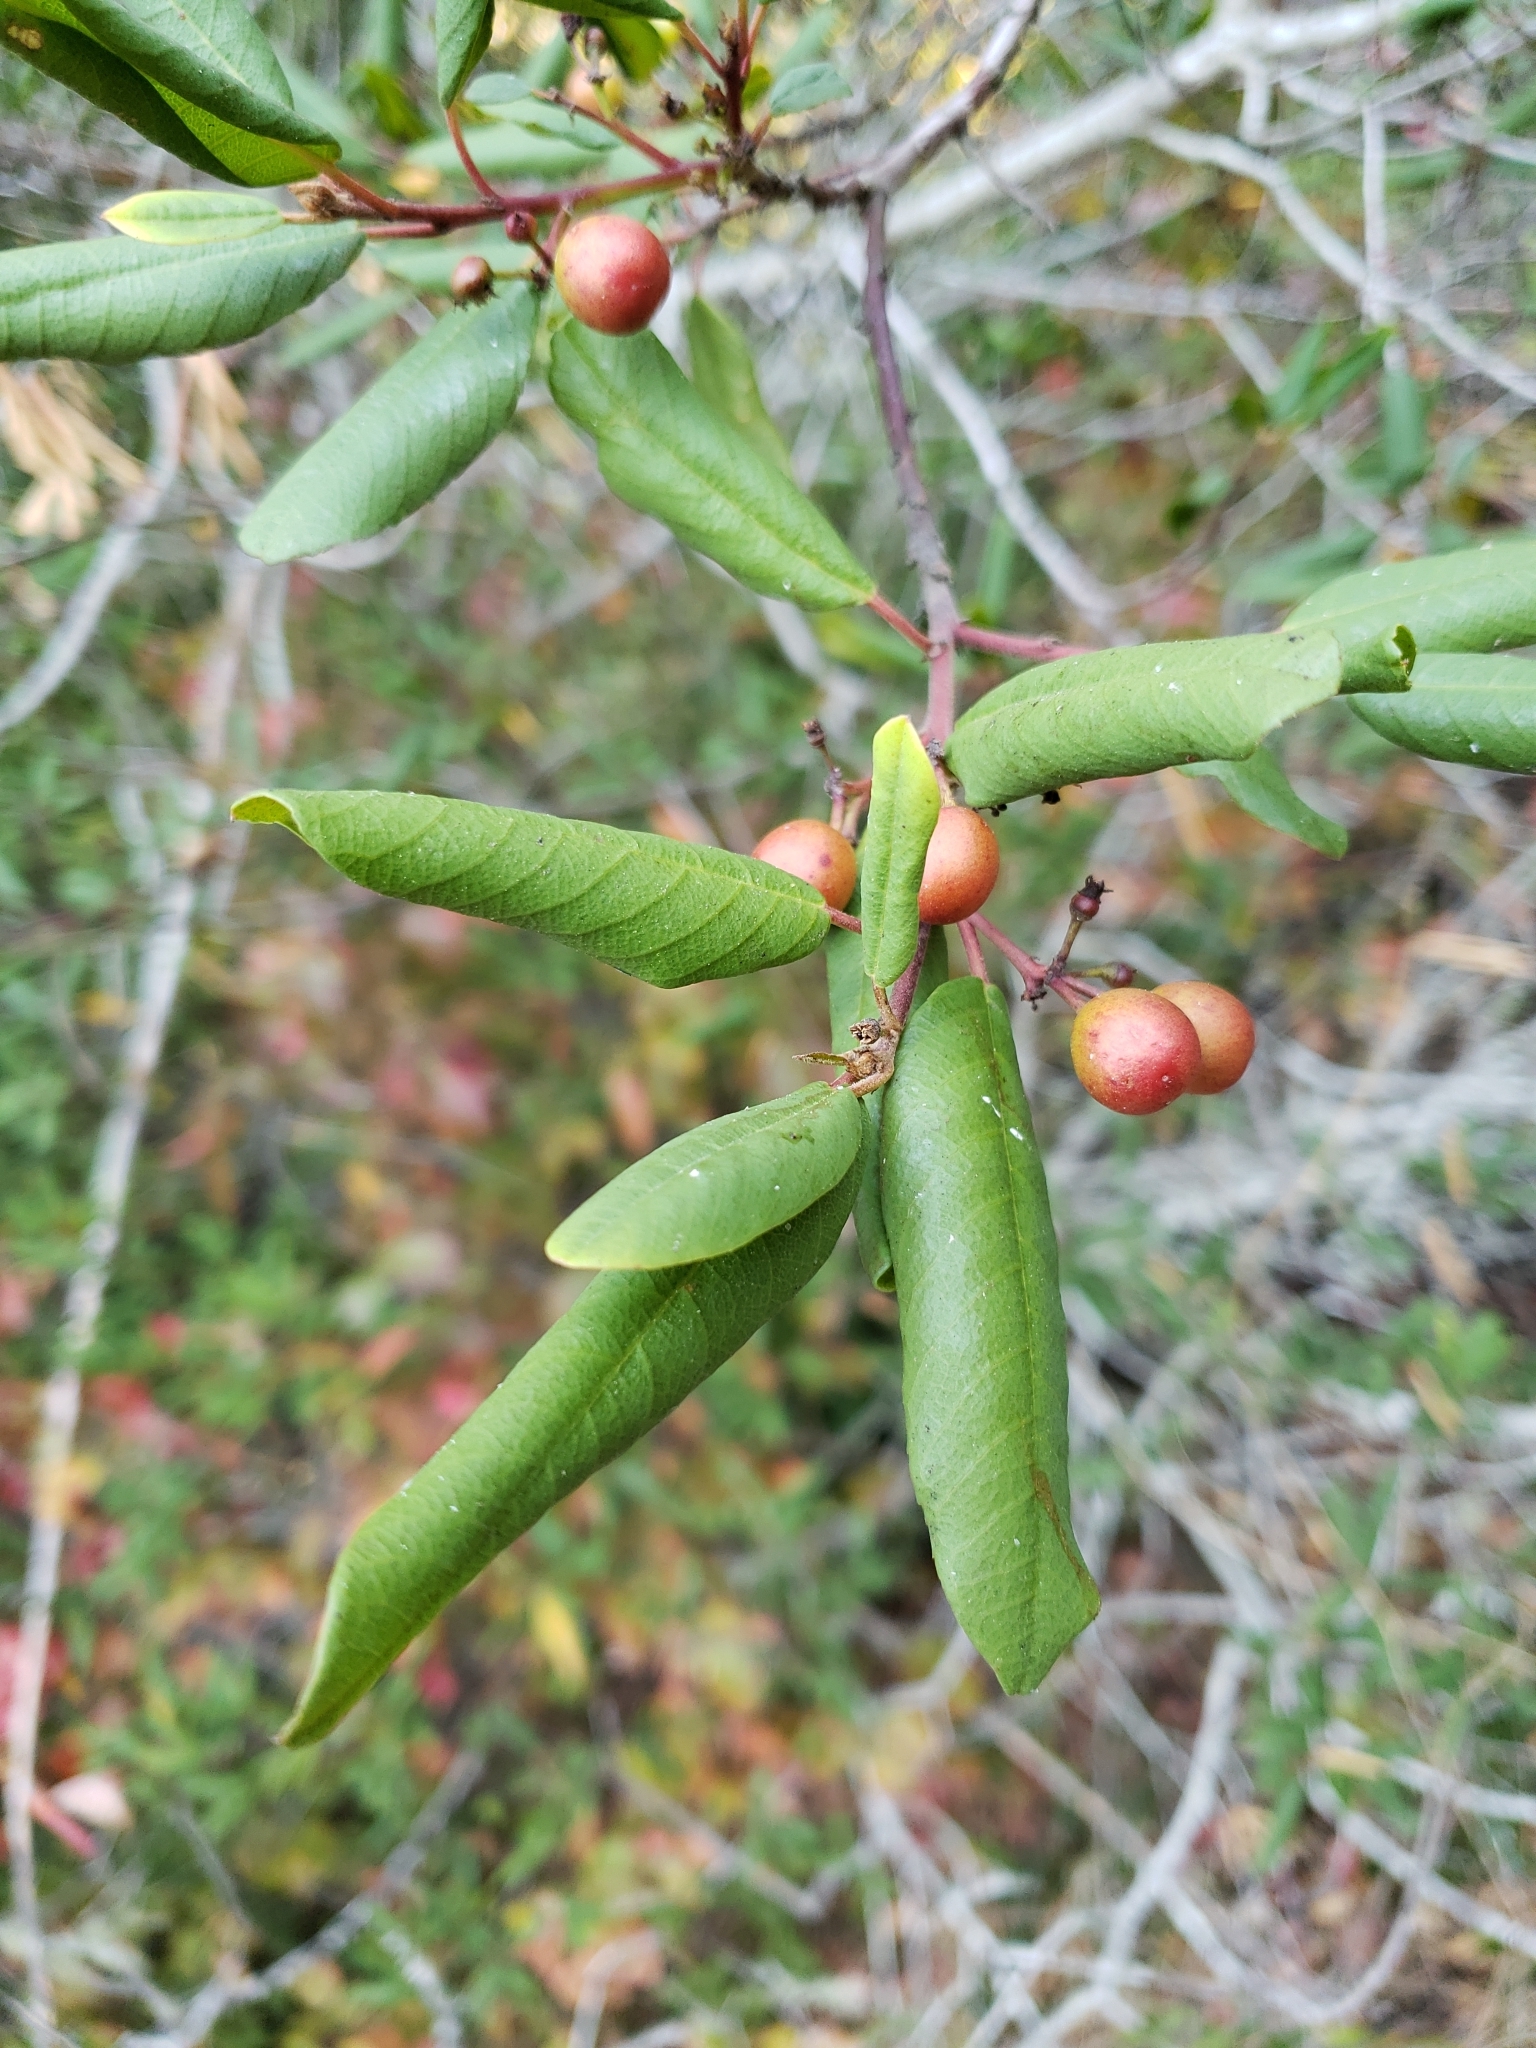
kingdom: Plantae
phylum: Tracheophyta
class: Magnoliopsida
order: Rosales
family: Rhamnaceae
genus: Frangula
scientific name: Frangula californica
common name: California buckthorn
